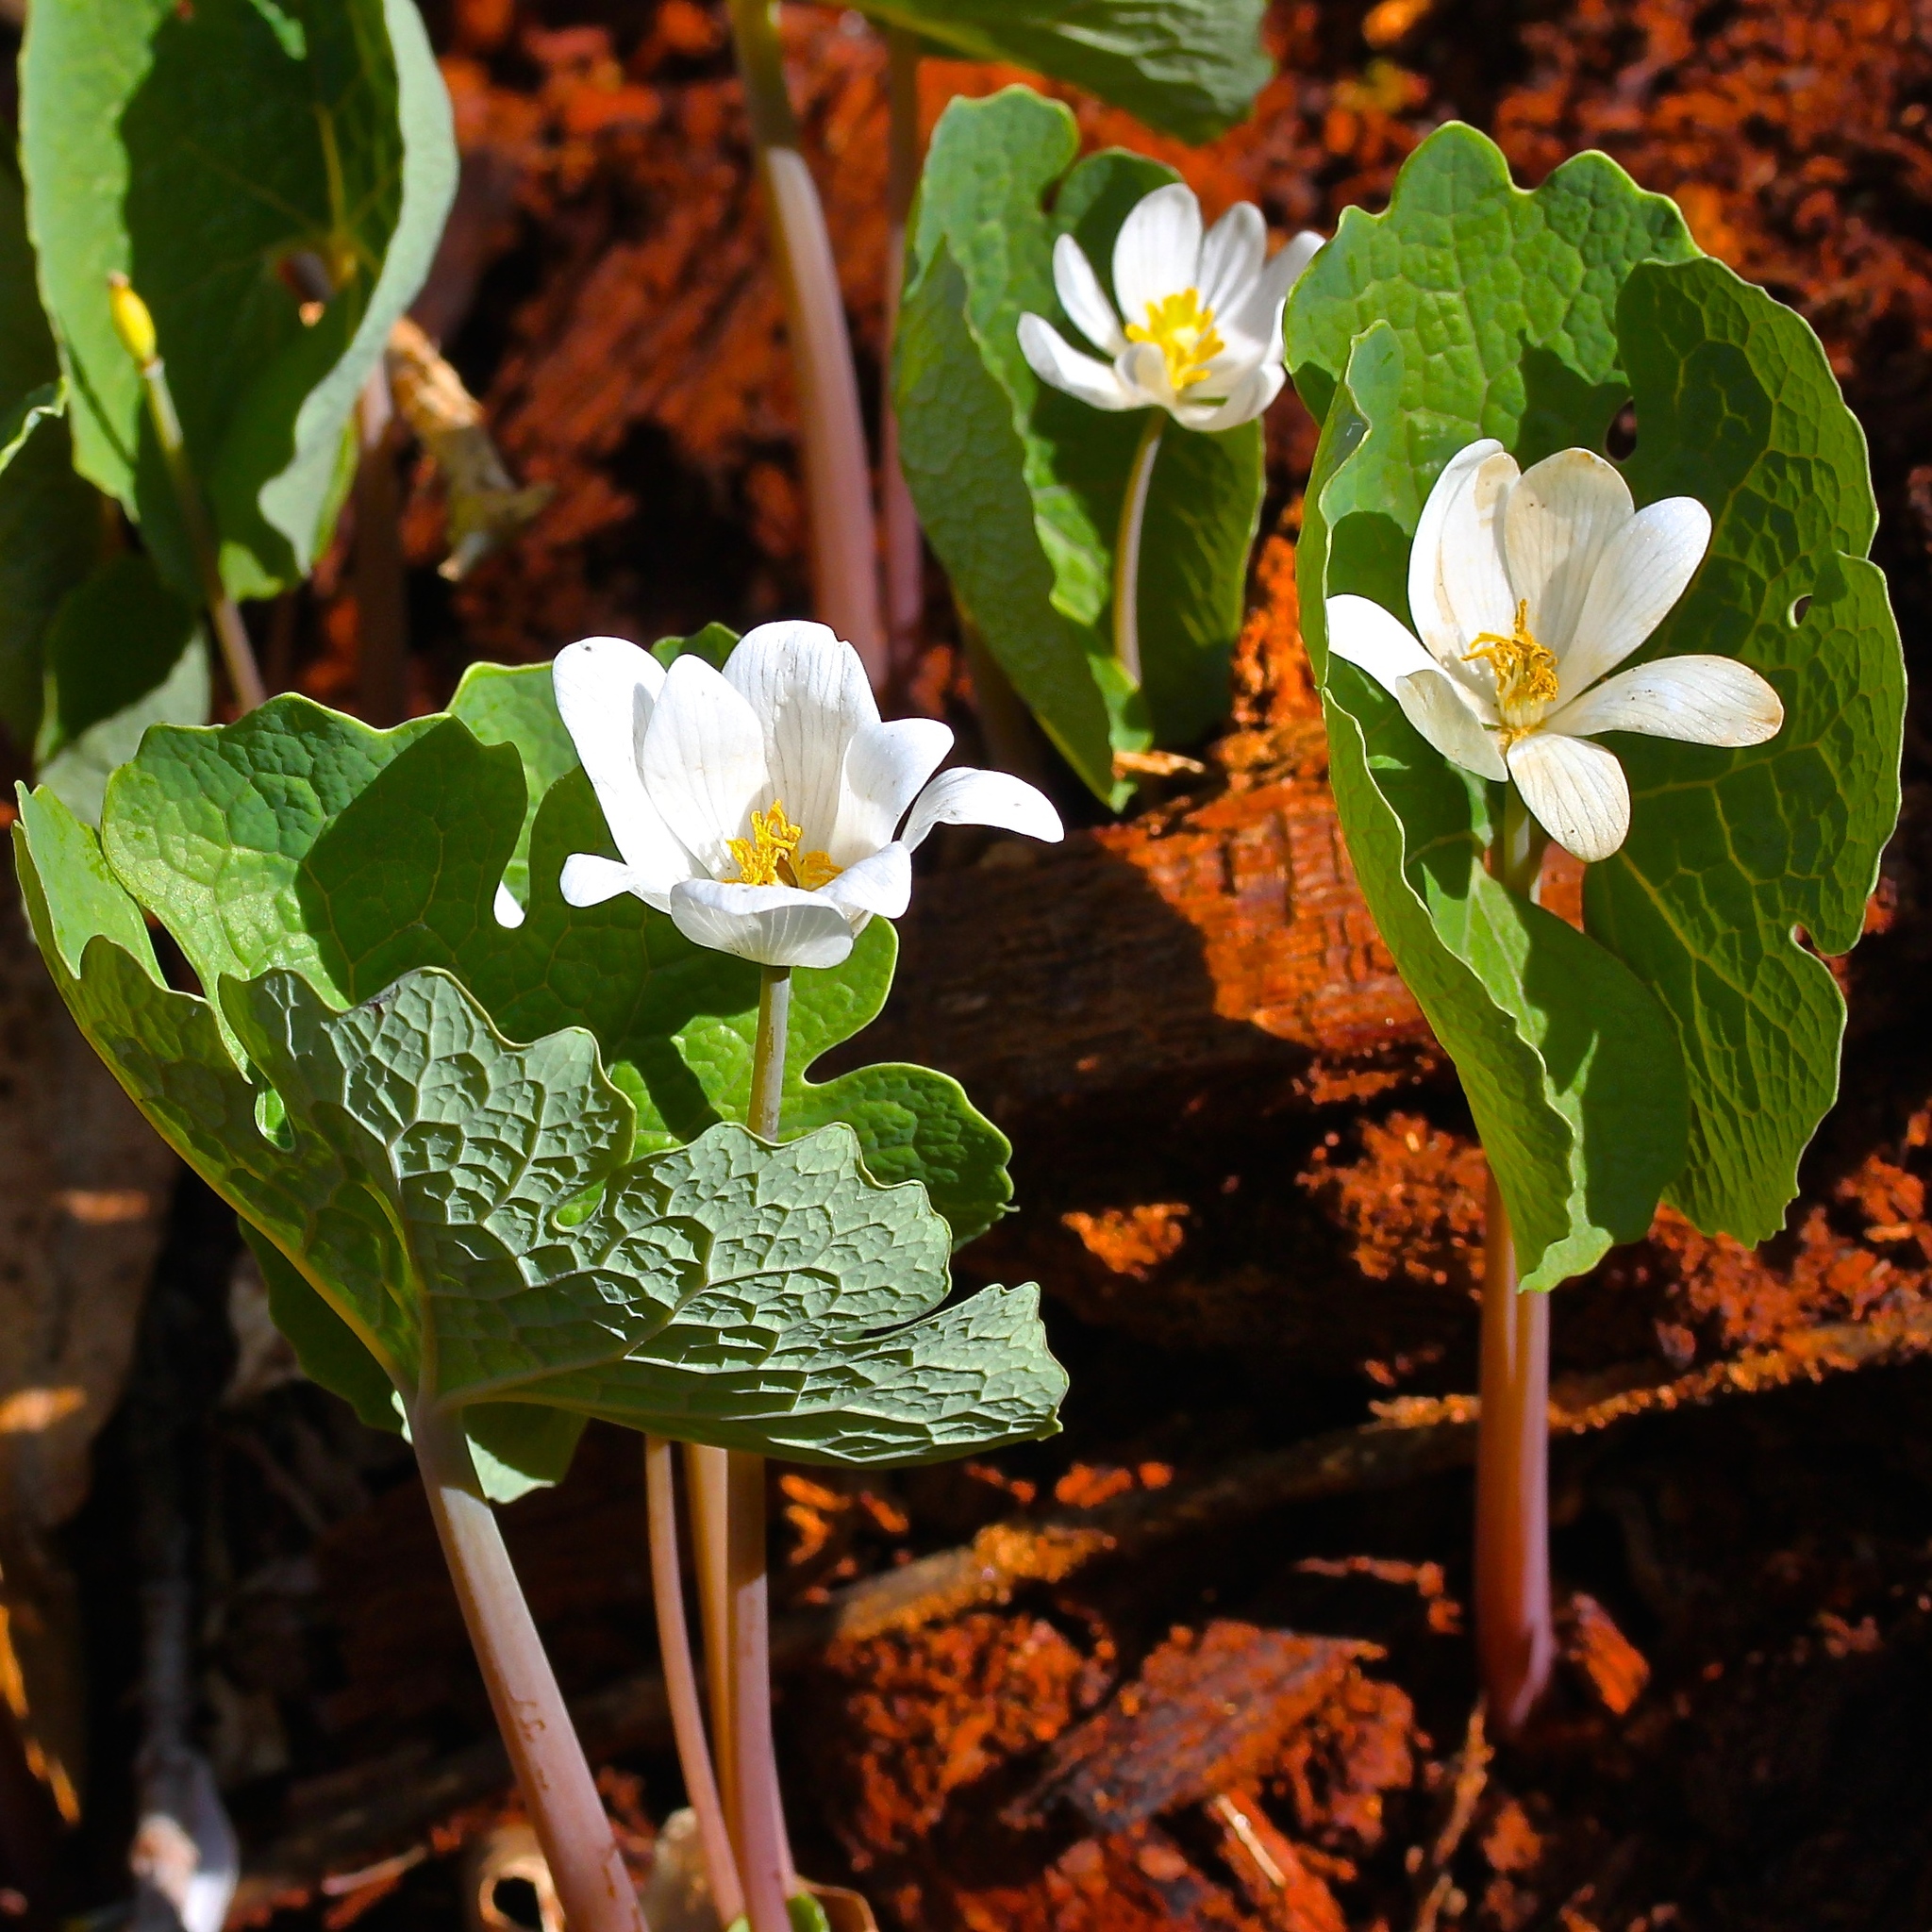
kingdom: Plantae
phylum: Tracheophyta
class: Magnoliopsida
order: Ranunculales
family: Papaveraceae
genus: Sanguinaria
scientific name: Sanguinaria canadensis
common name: Bloodroot
